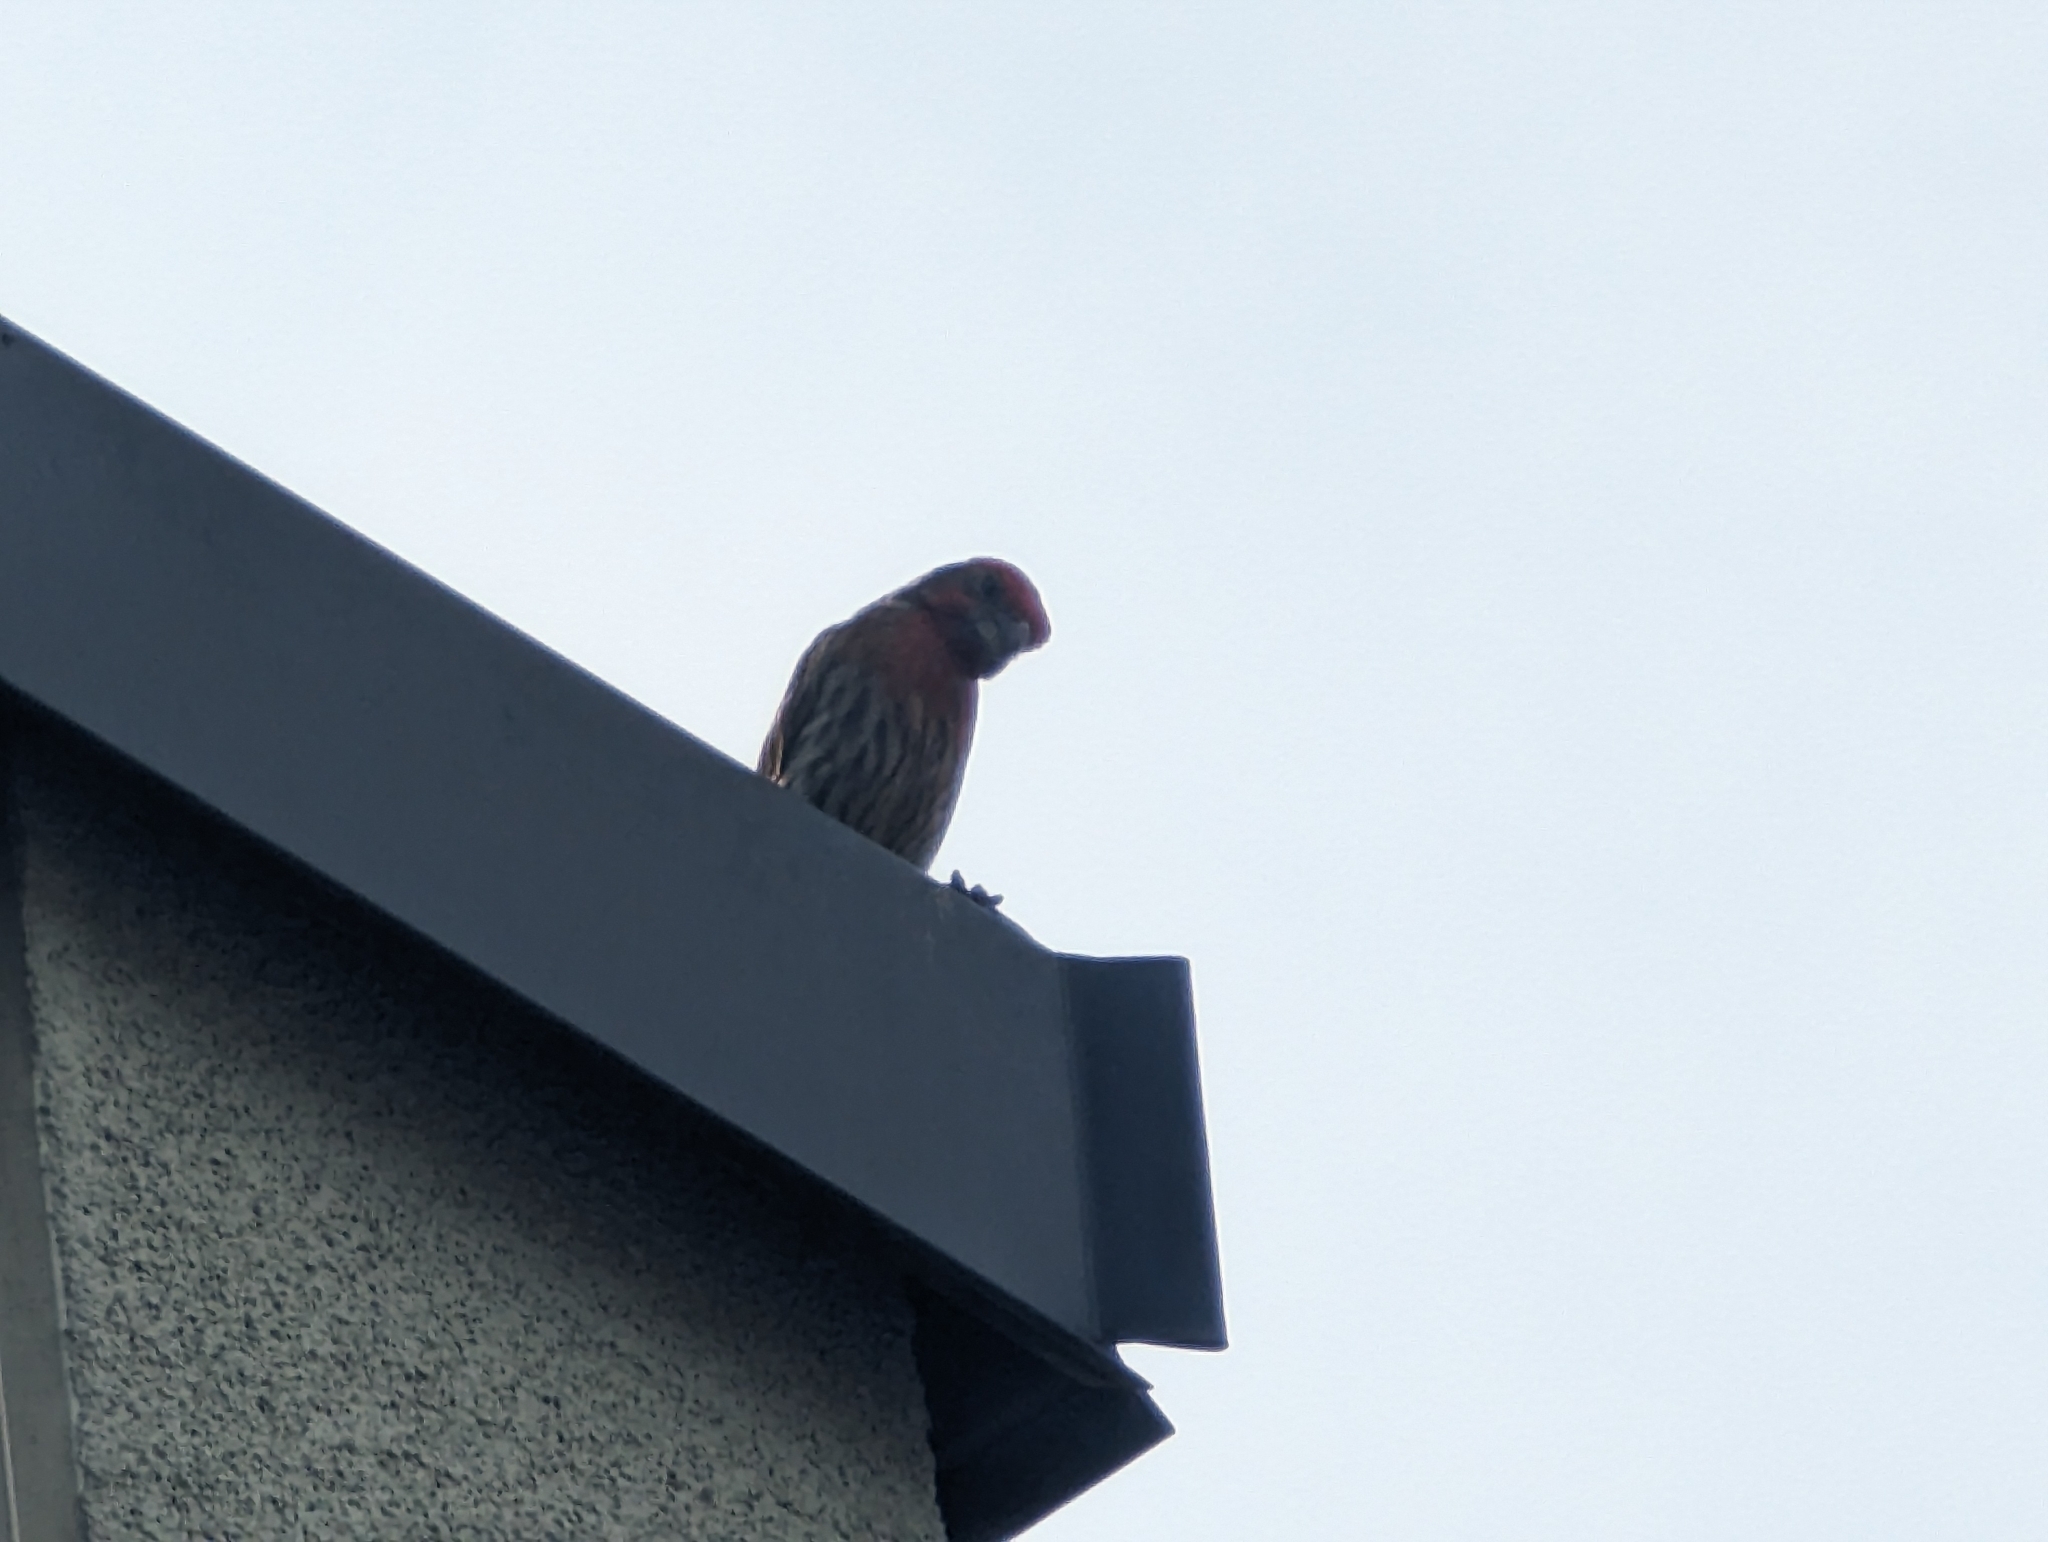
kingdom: Animalia
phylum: Chordata
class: Aves
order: Passeriformes
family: Fringillidae
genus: Haemorhous
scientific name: Haemorhous mexicanus
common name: House finch
